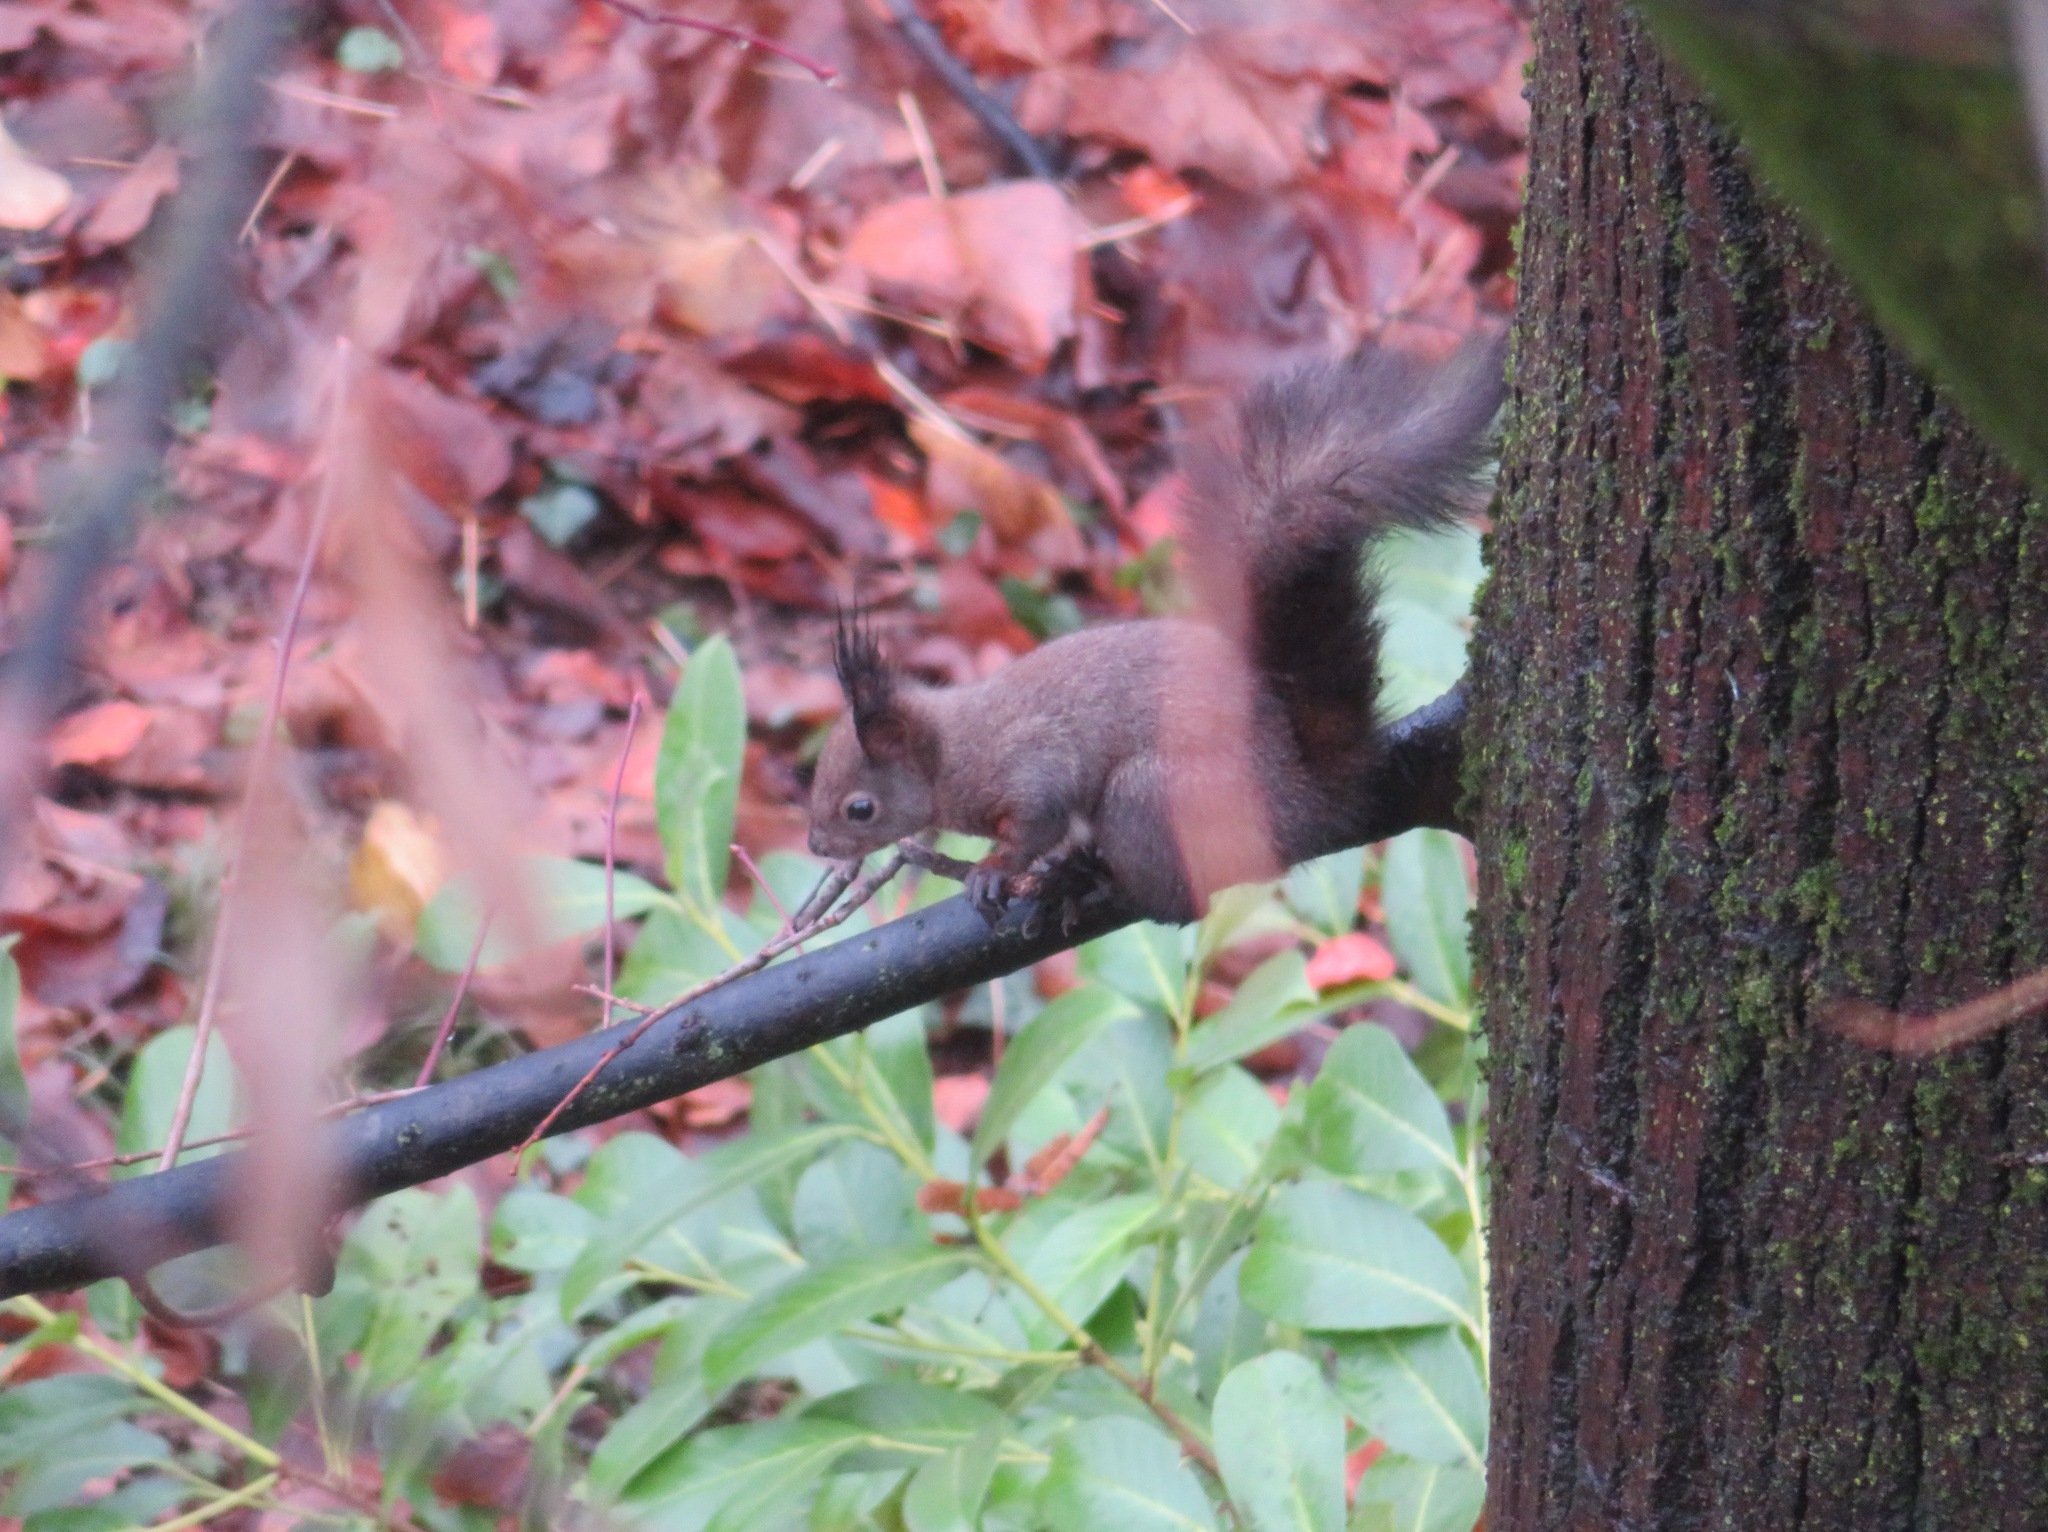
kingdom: Animalia
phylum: Chordata
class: Mammalia
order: Rodentia
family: Sciuridae
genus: Sciurus
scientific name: Sciurus vulgaris
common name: Eurasian red squirrel
